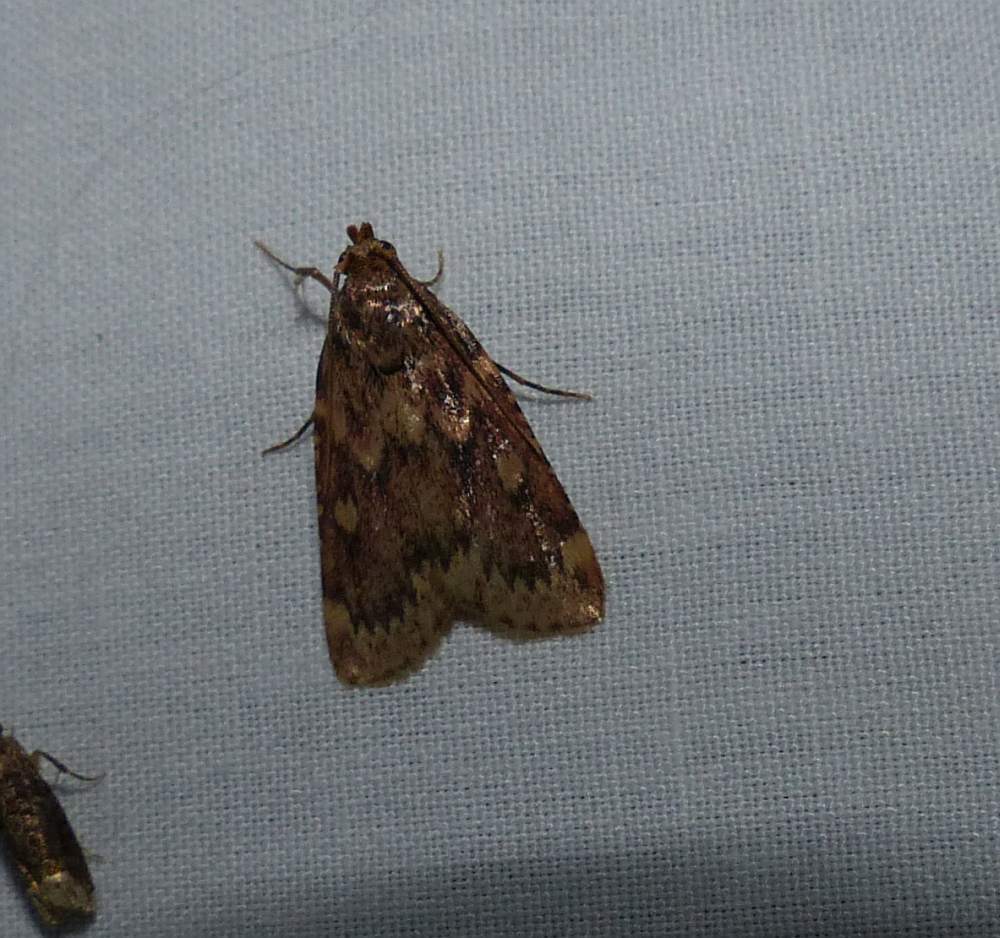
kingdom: Animalia
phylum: Arthropoda
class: Insecta
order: Lepidoptera
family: Pyralidae
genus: Aglossa
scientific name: Aglossa cuprina
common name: Grease moth
